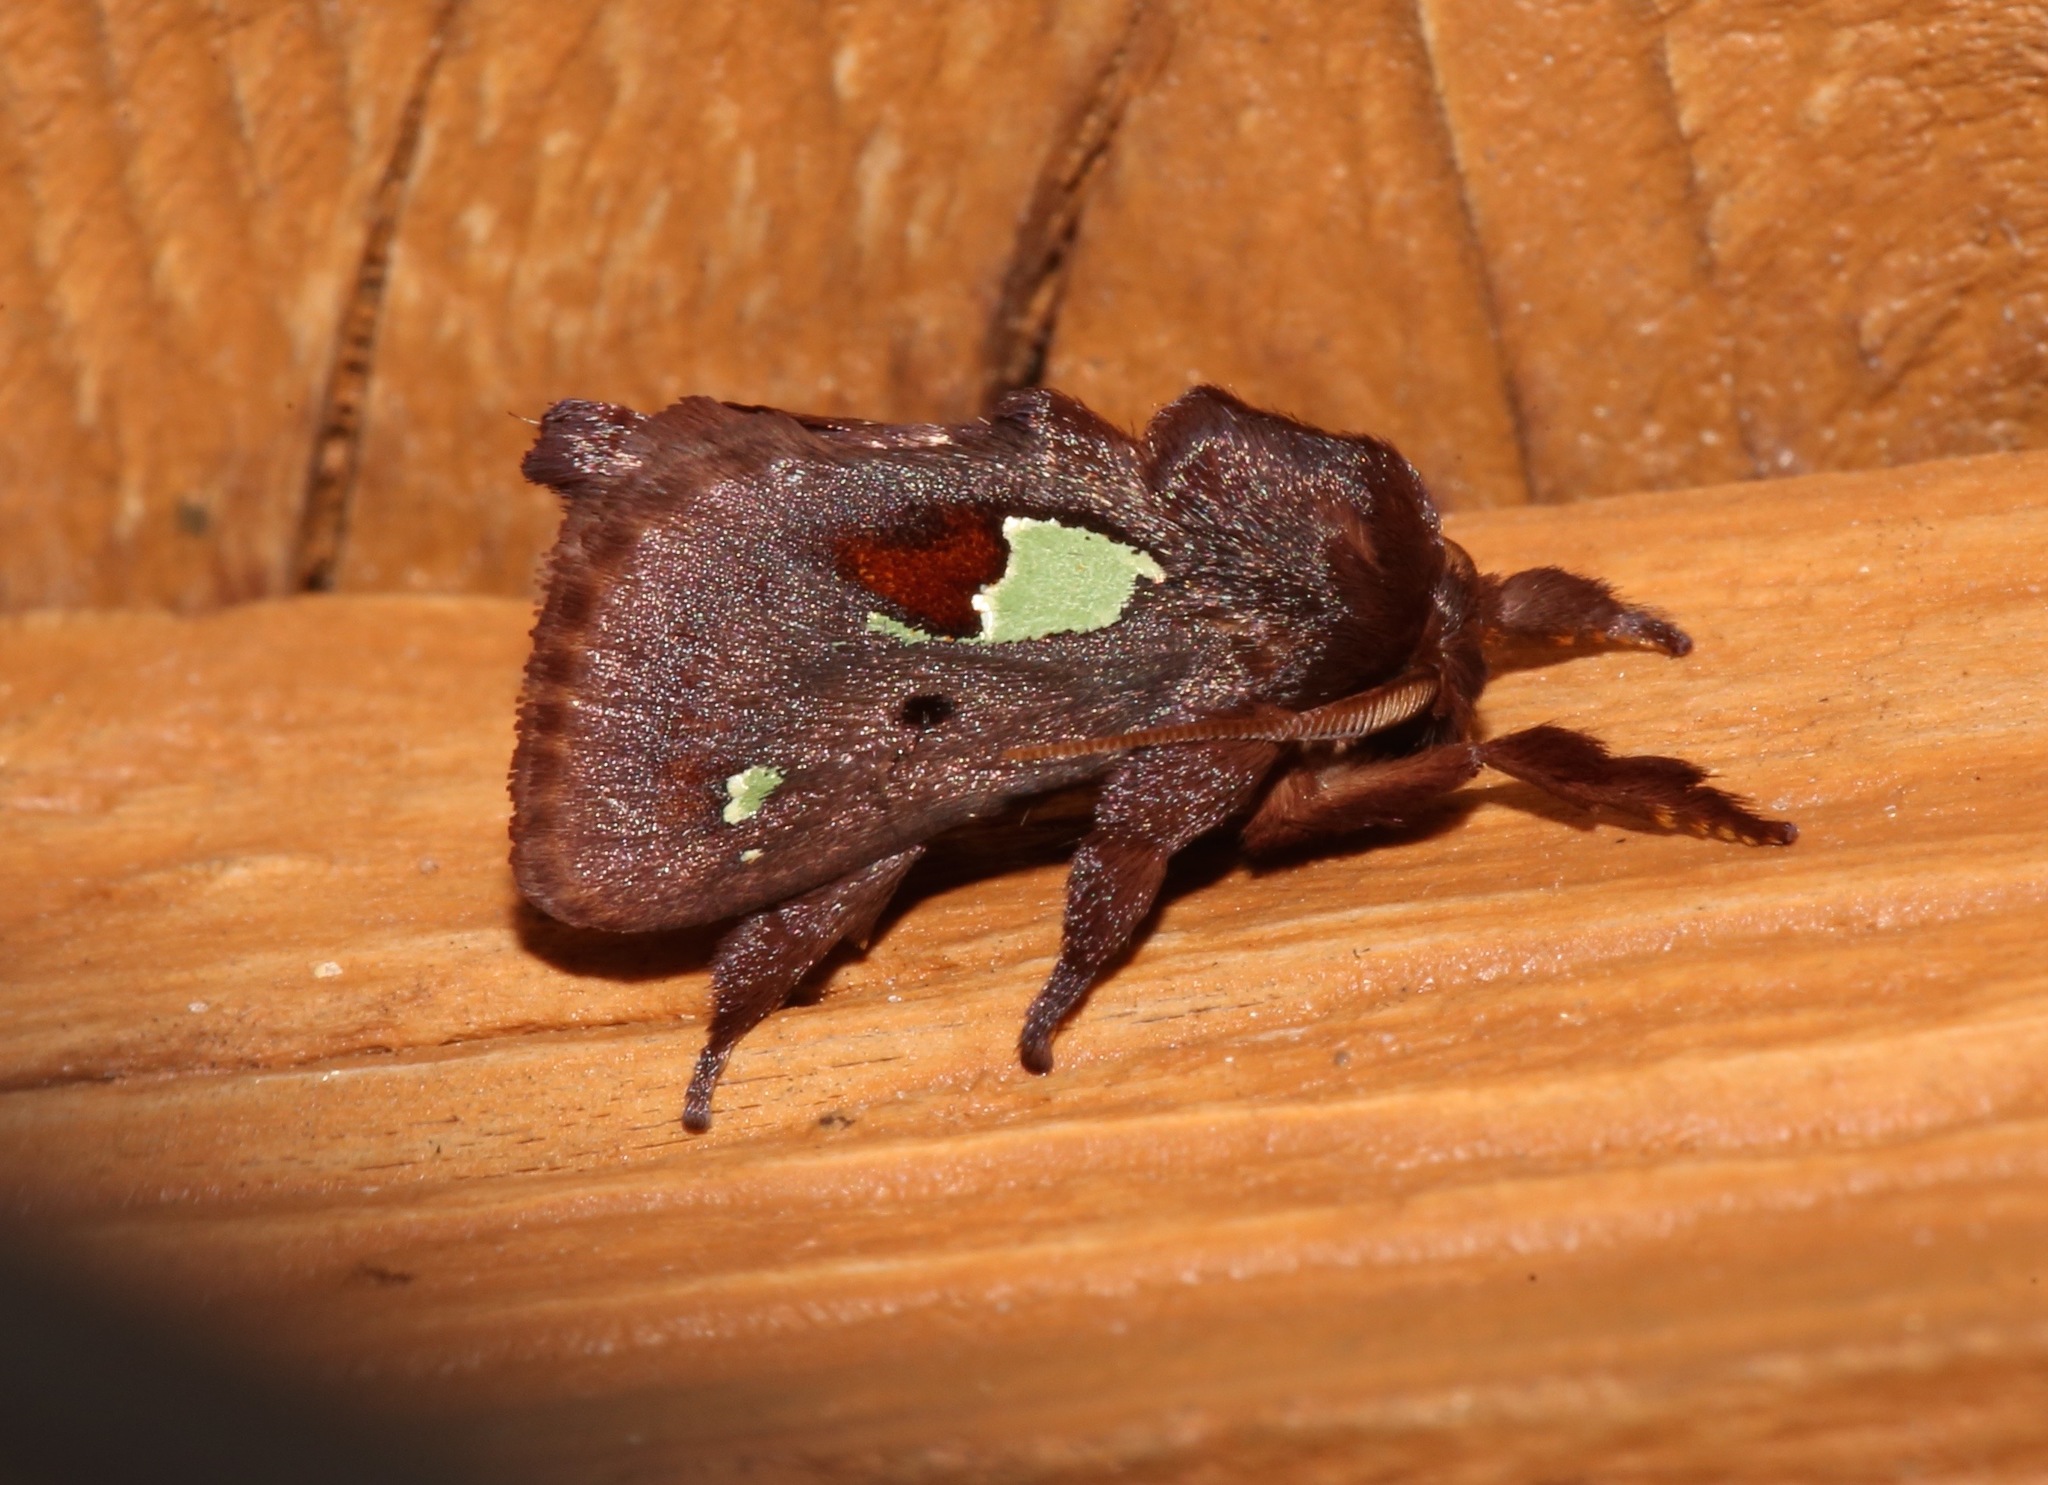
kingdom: Animalia
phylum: Arthropoda
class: Insecta
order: Lepidoptera
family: Limacodidae
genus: Euclea
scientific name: Euclea delphinii
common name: Spiny oak-slug moth
